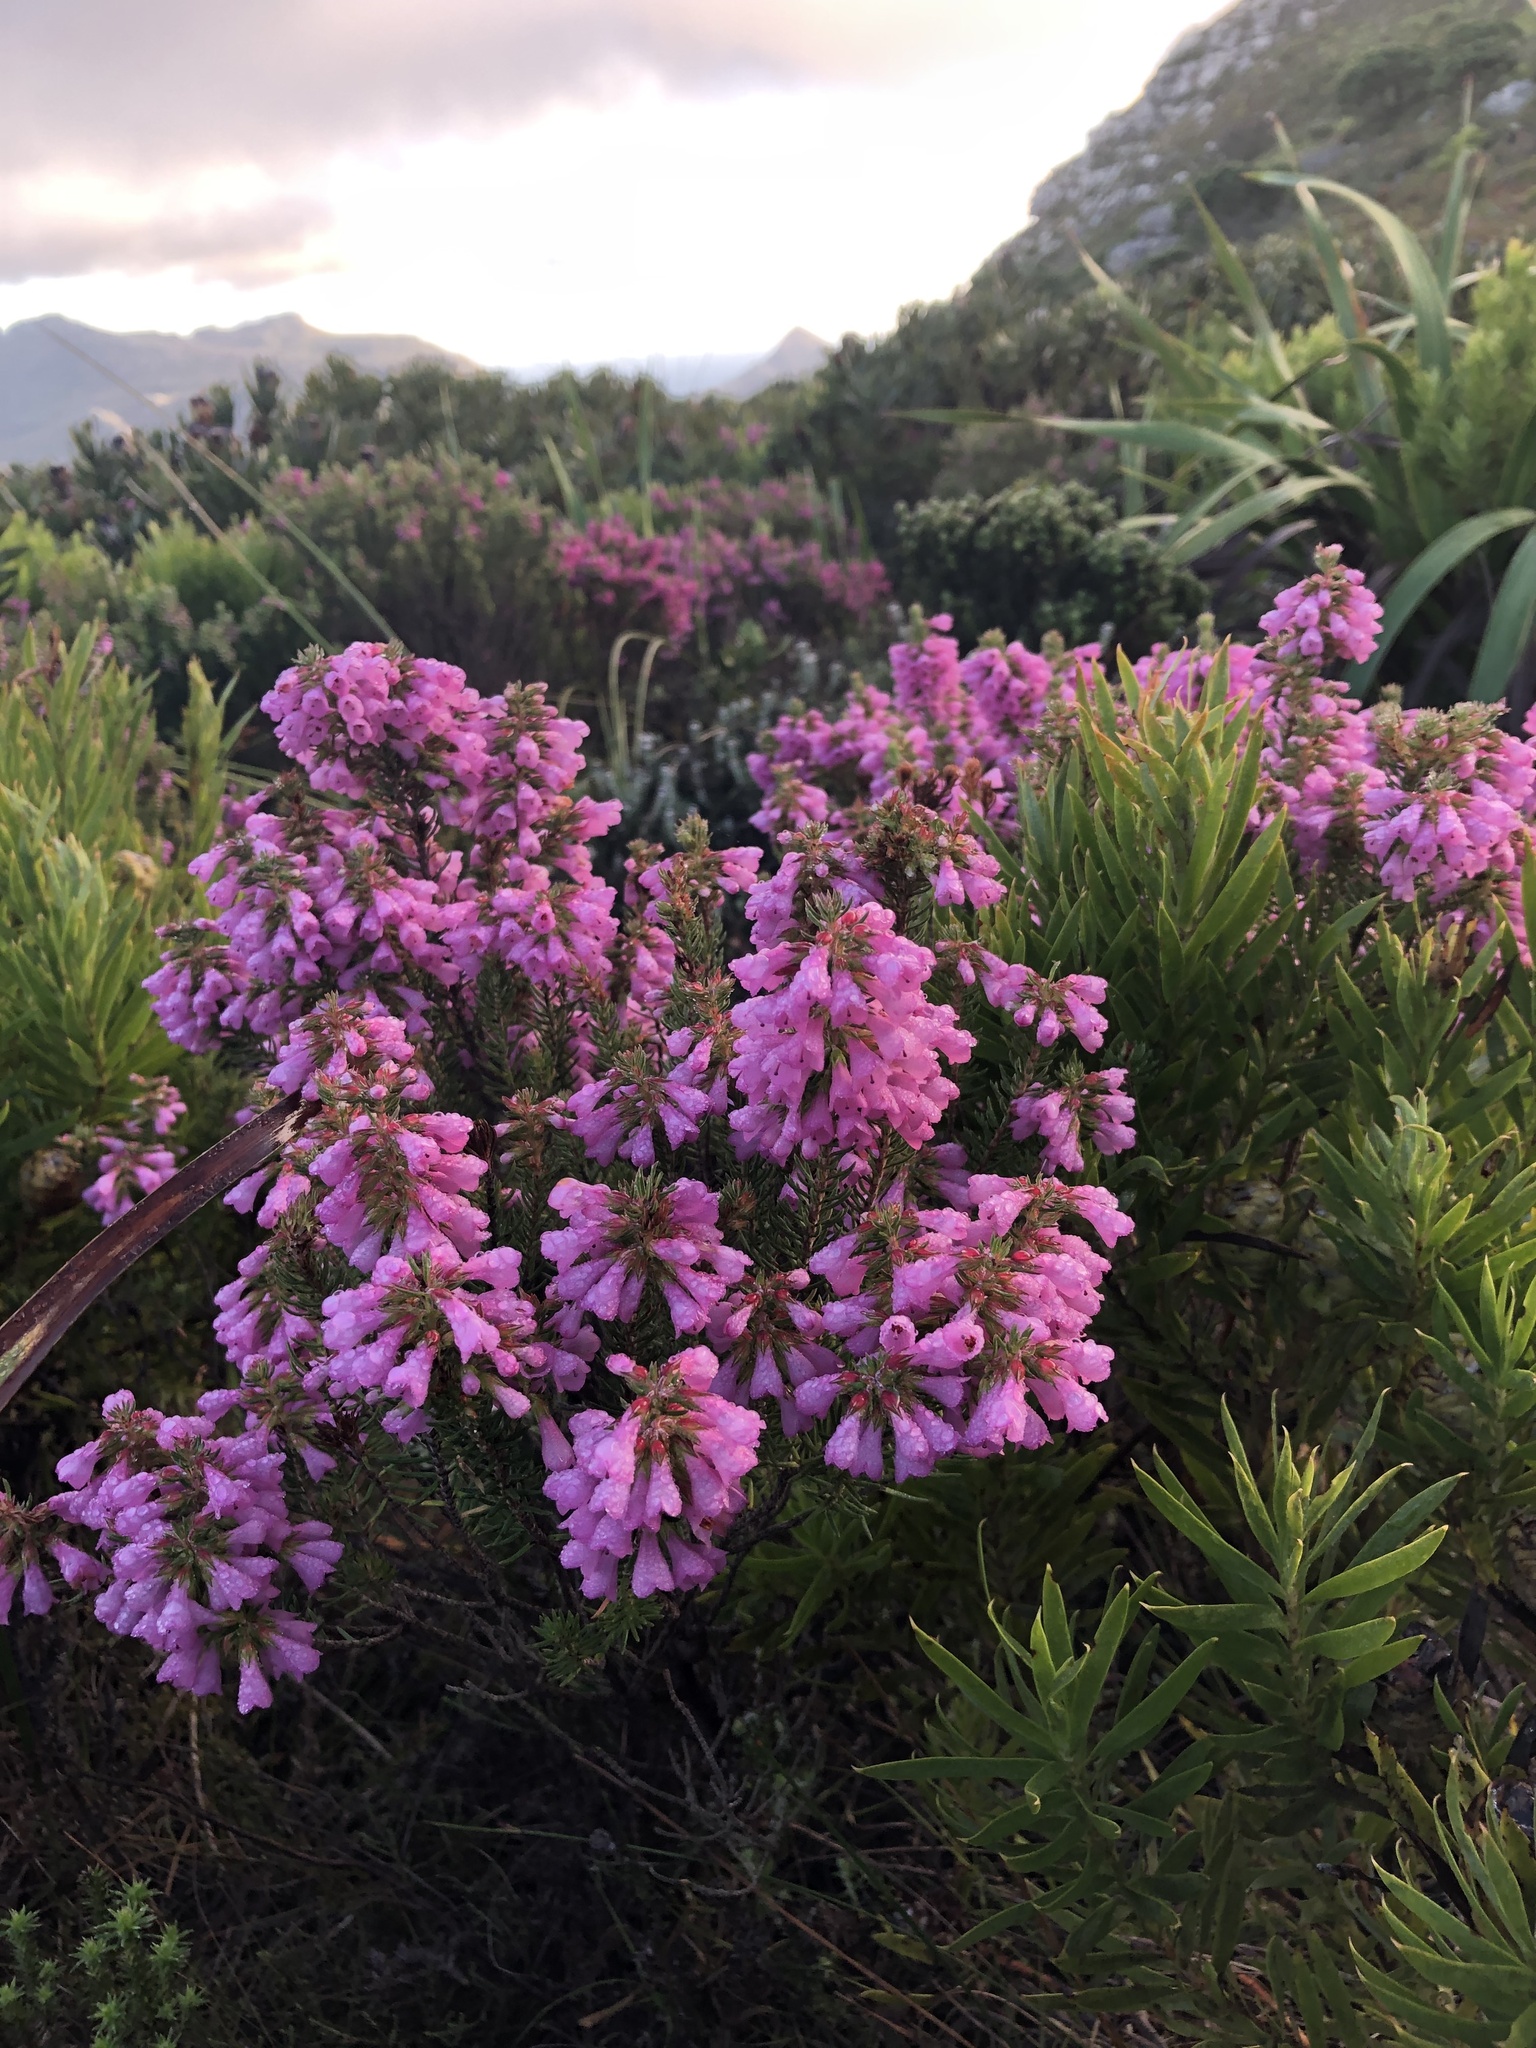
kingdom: Plantae
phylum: Tracheophyta
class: Magnoliopsida
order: Ericales
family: Ericaceae
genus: Erica
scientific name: Erica abietina
